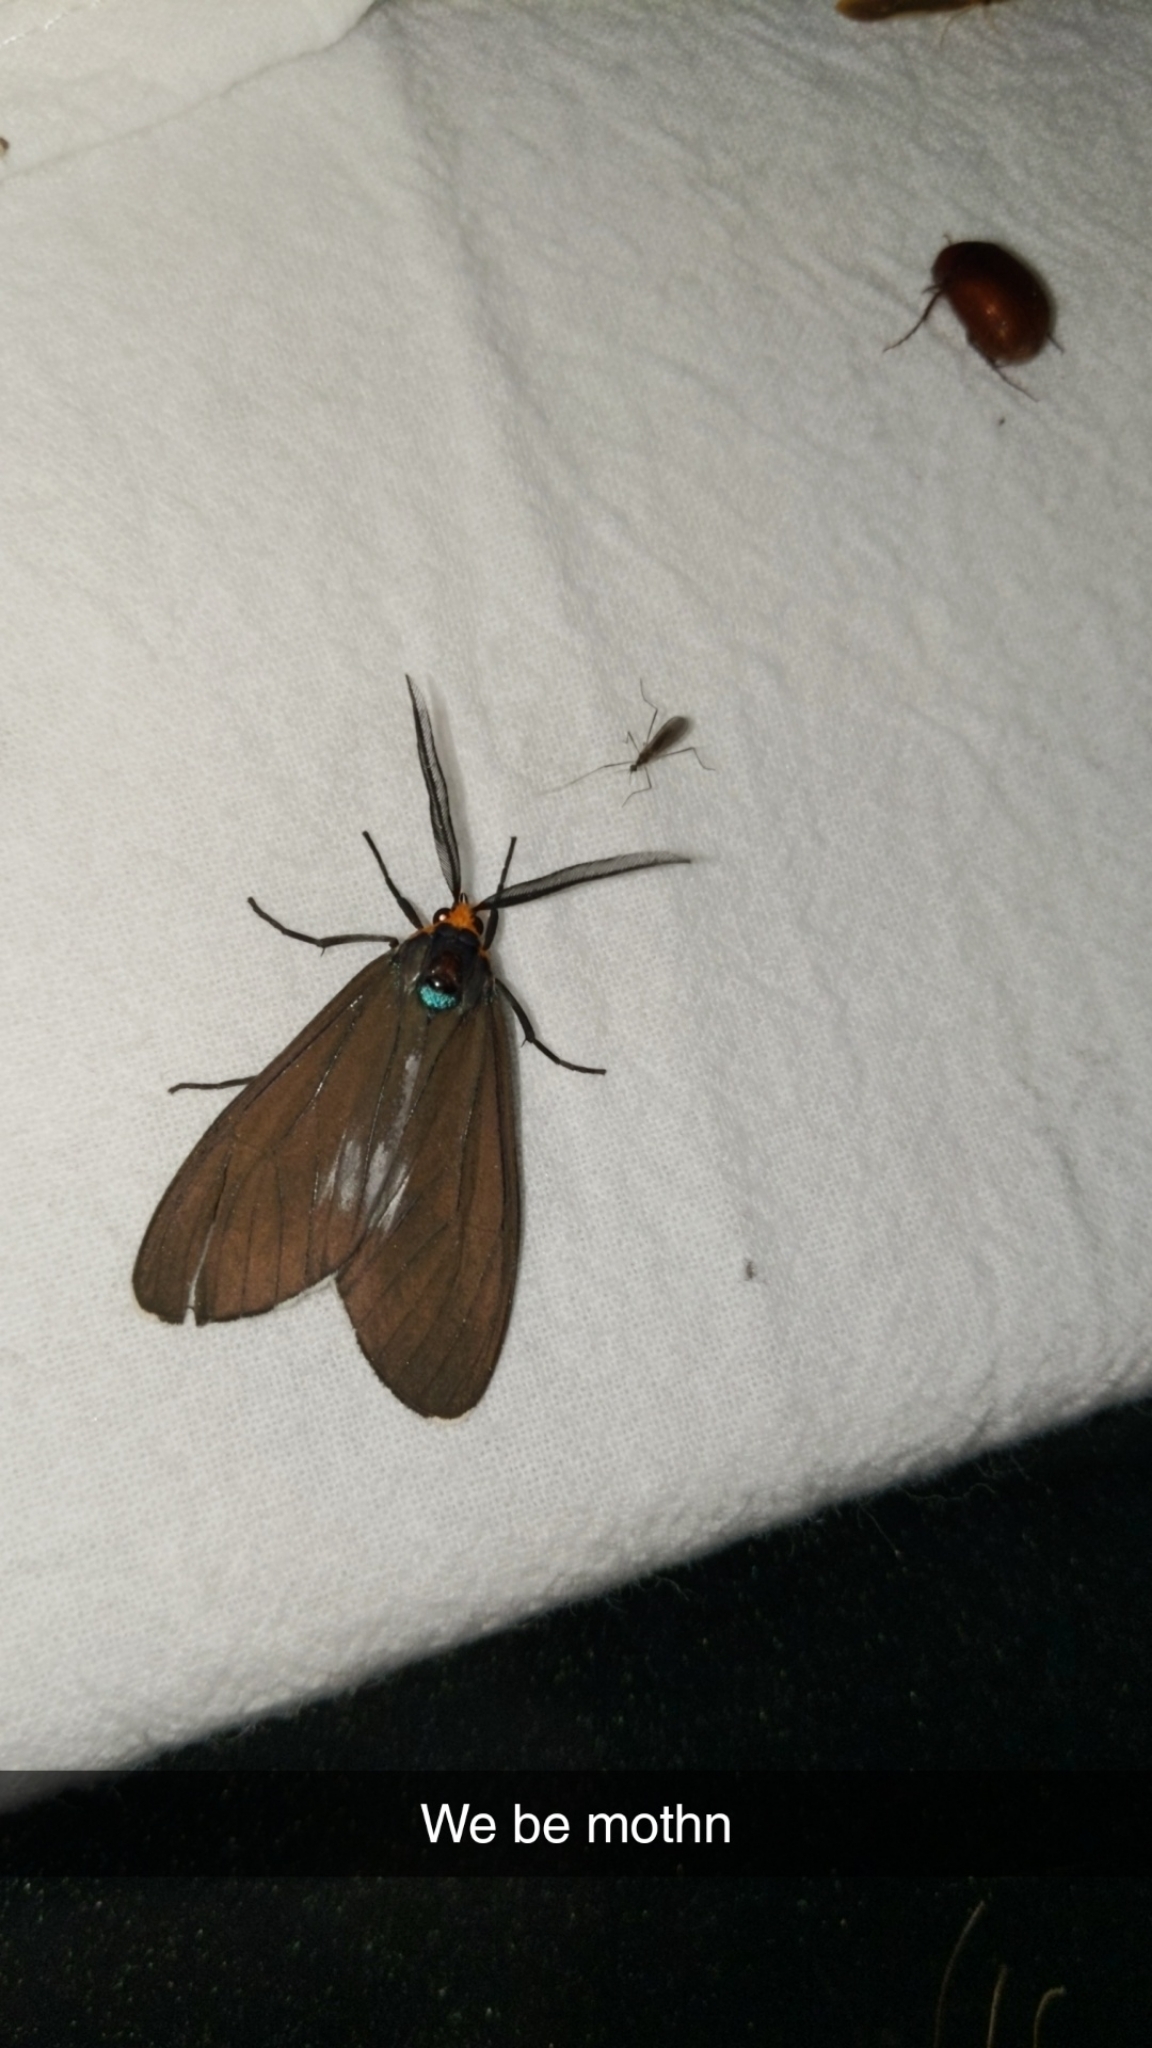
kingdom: Animalia
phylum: Arthropoda
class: Insecta
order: Lepidoptera
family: Erebidae
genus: Ctenucha
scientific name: Ctenucha virginica
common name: Virginia ctenucha moth
